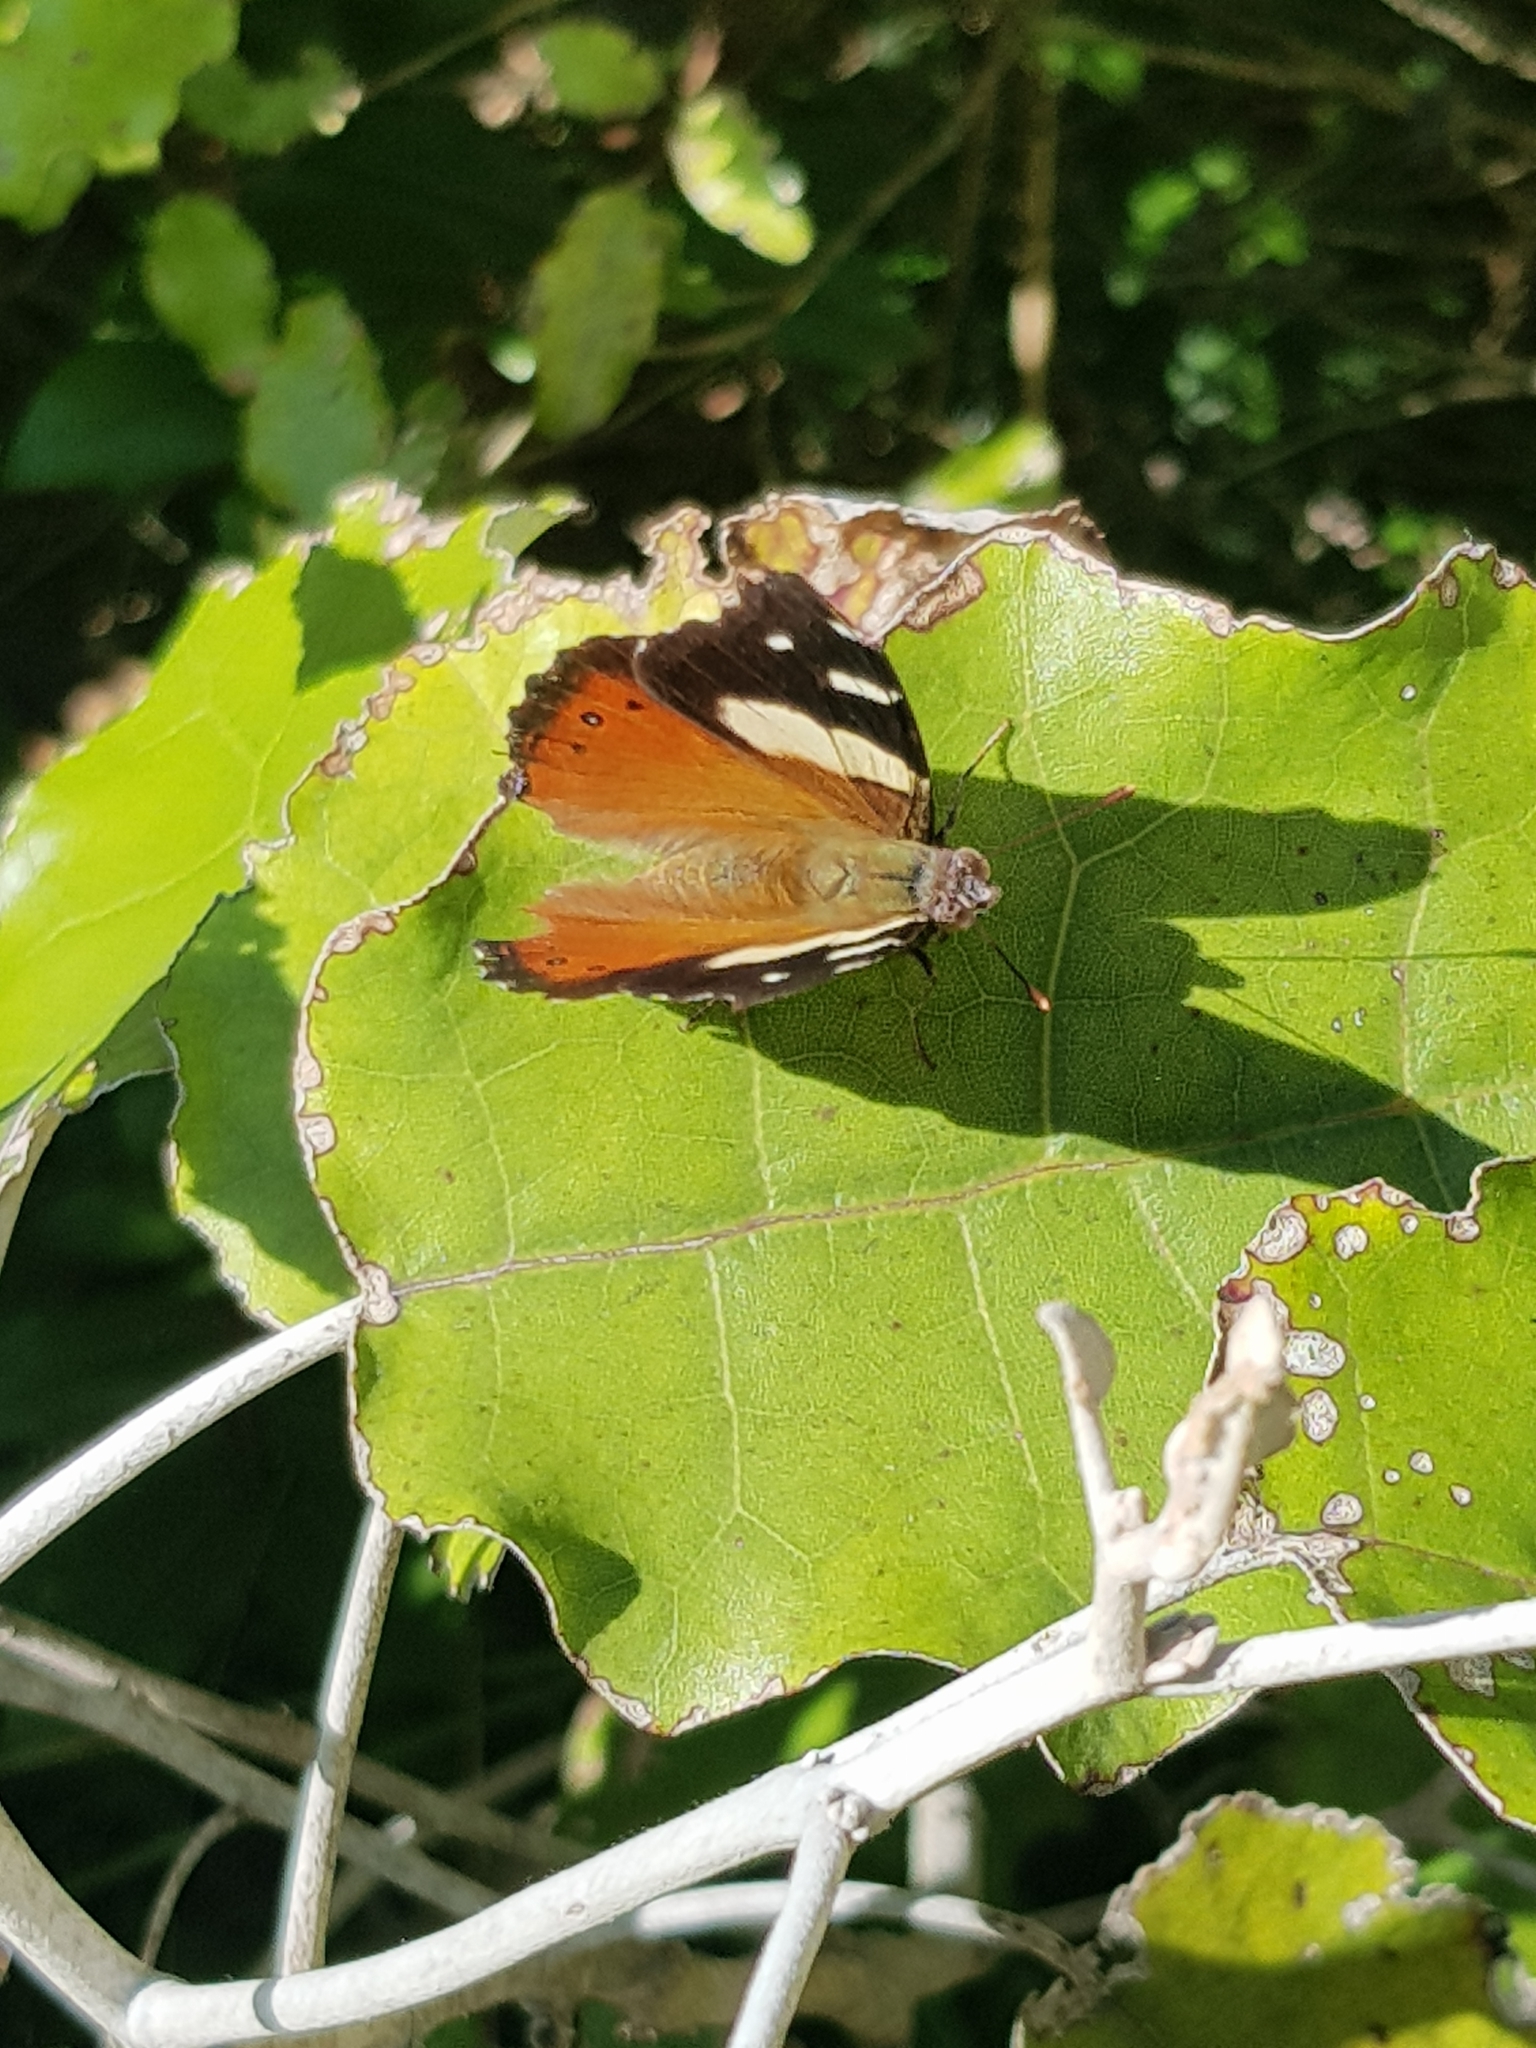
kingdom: Animalia
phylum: Arthropoda
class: Insecta
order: Lepidoptera
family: Nymphalidae
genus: Vanessa
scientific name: Vanessa itea
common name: Yellow admiral
